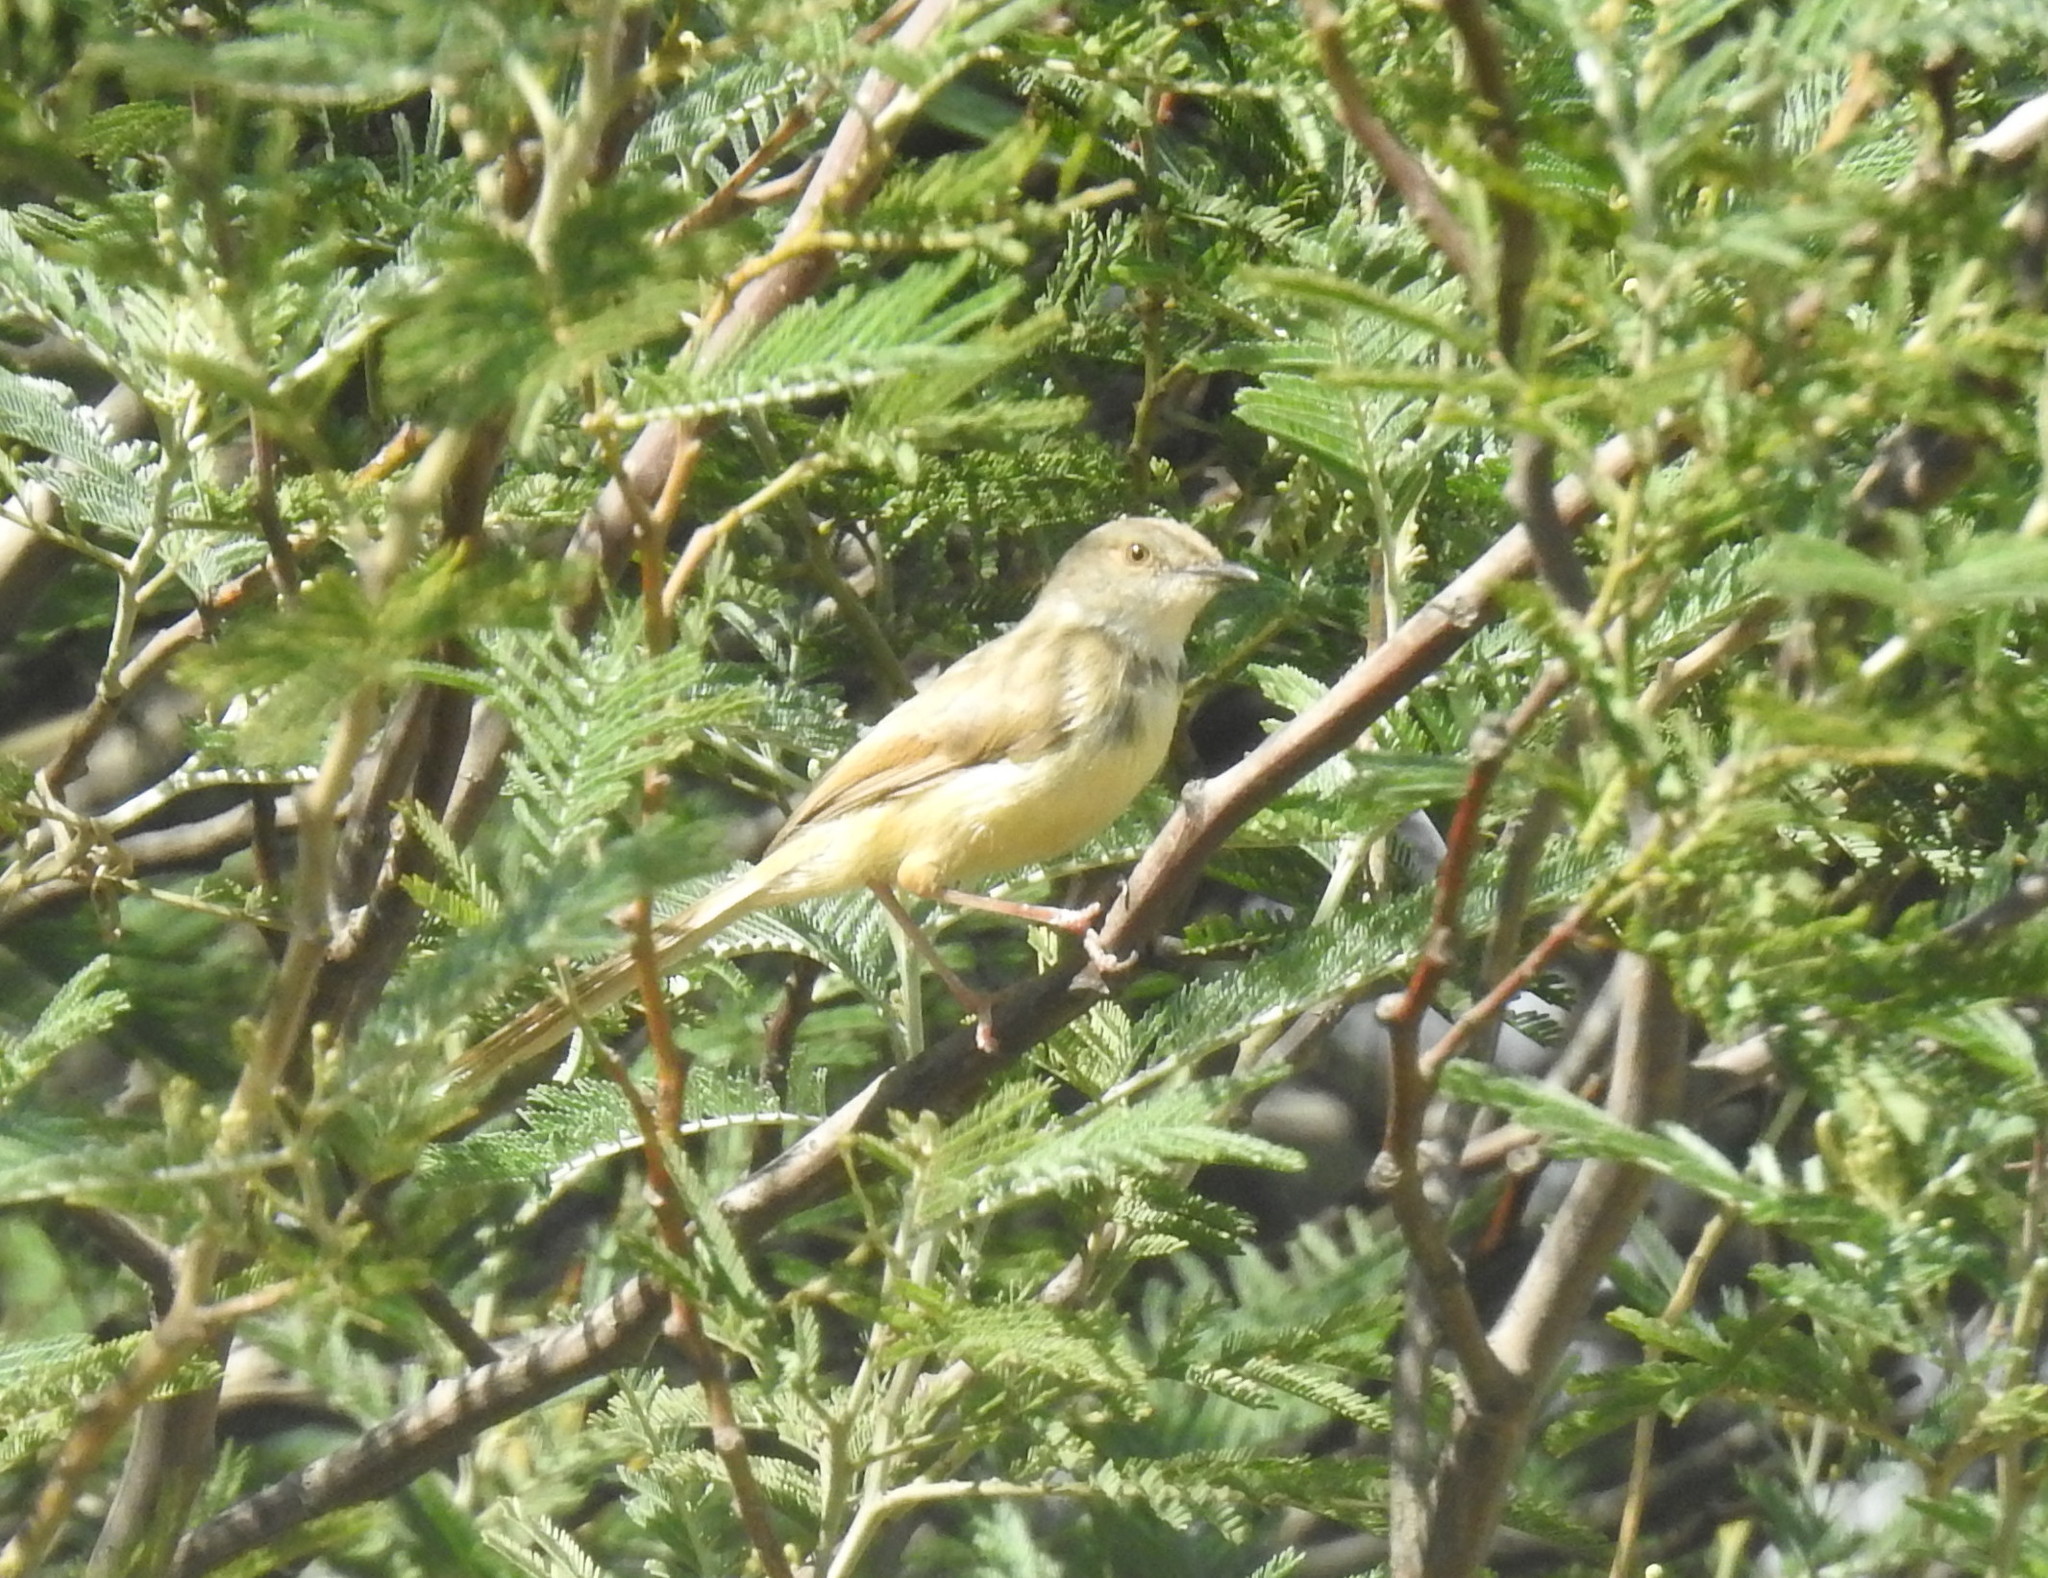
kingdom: Animalia
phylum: Chordata
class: Aves
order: Passeriformes
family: Cisticolidae
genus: Prinia
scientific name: Prinia flavicans
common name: Black-chested prinia
